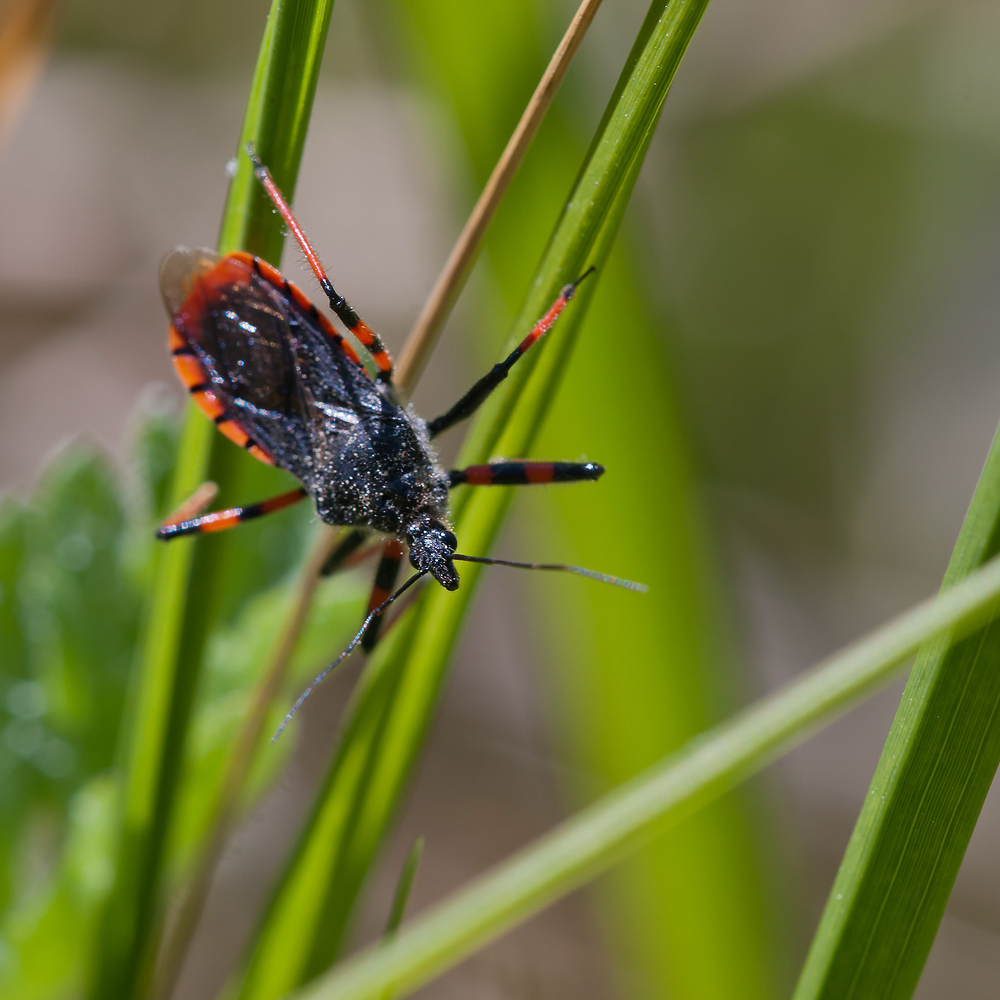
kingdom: Animalia
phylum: Arthropoda
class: Insecta
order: Hemiptera
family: Reduviidae
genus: Rhynocoris
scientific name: Rhynocoris annulatus
